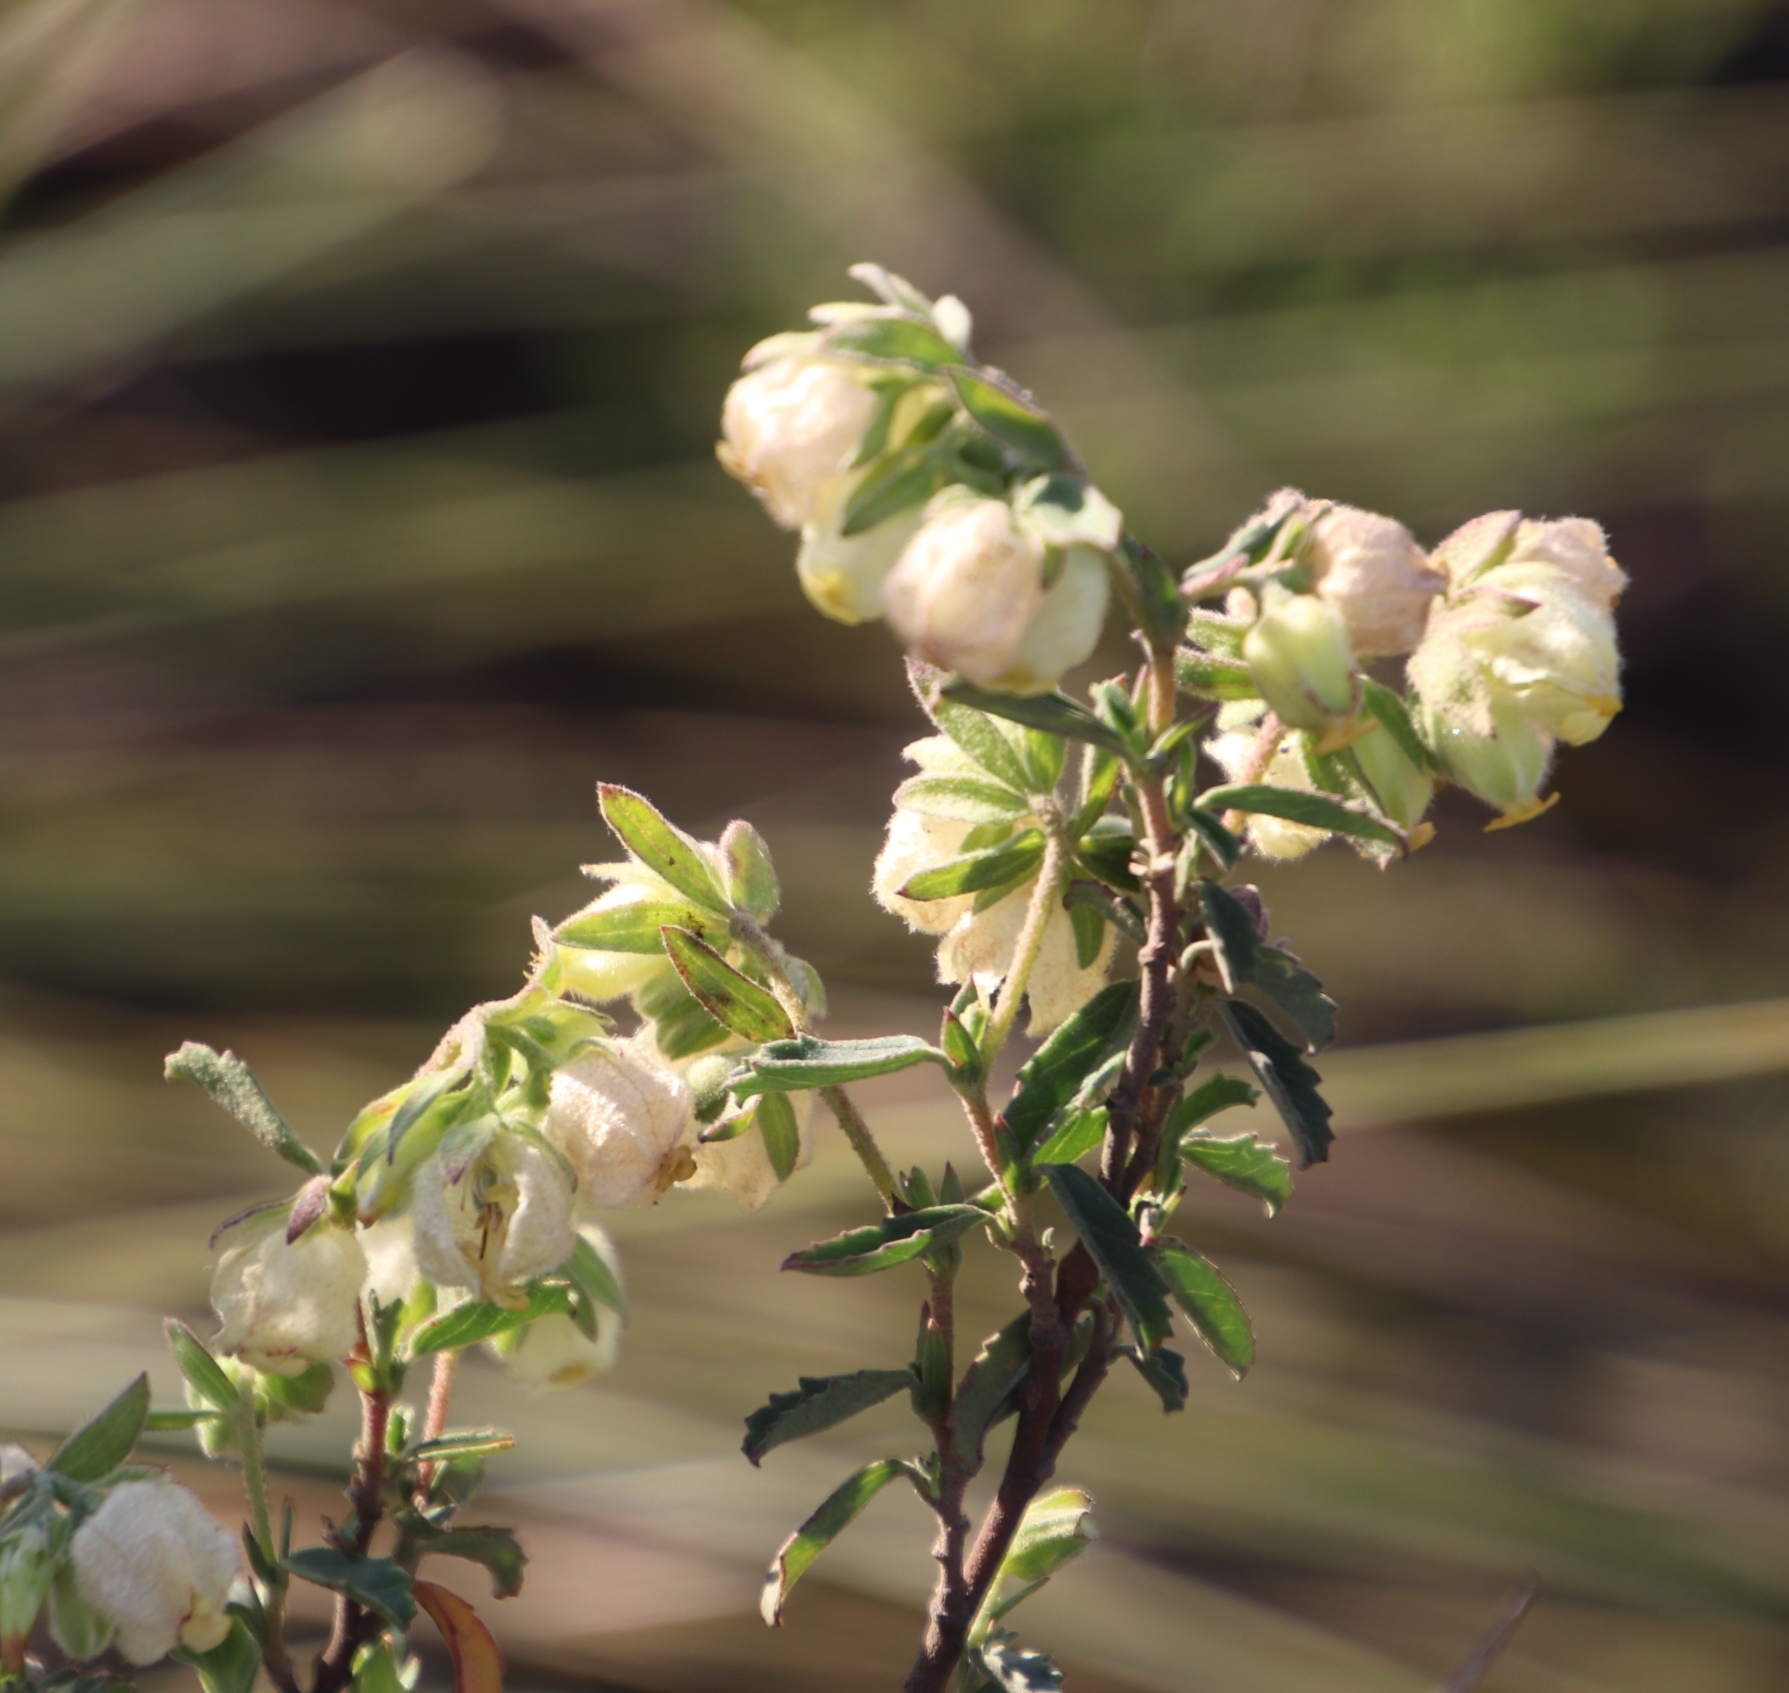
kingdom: Plantae
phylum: Tracheophyta
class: Magnoliopsida
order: Malvales
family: Malvaceae
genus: Hermannia
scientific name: Hermannia hyssopifolia
